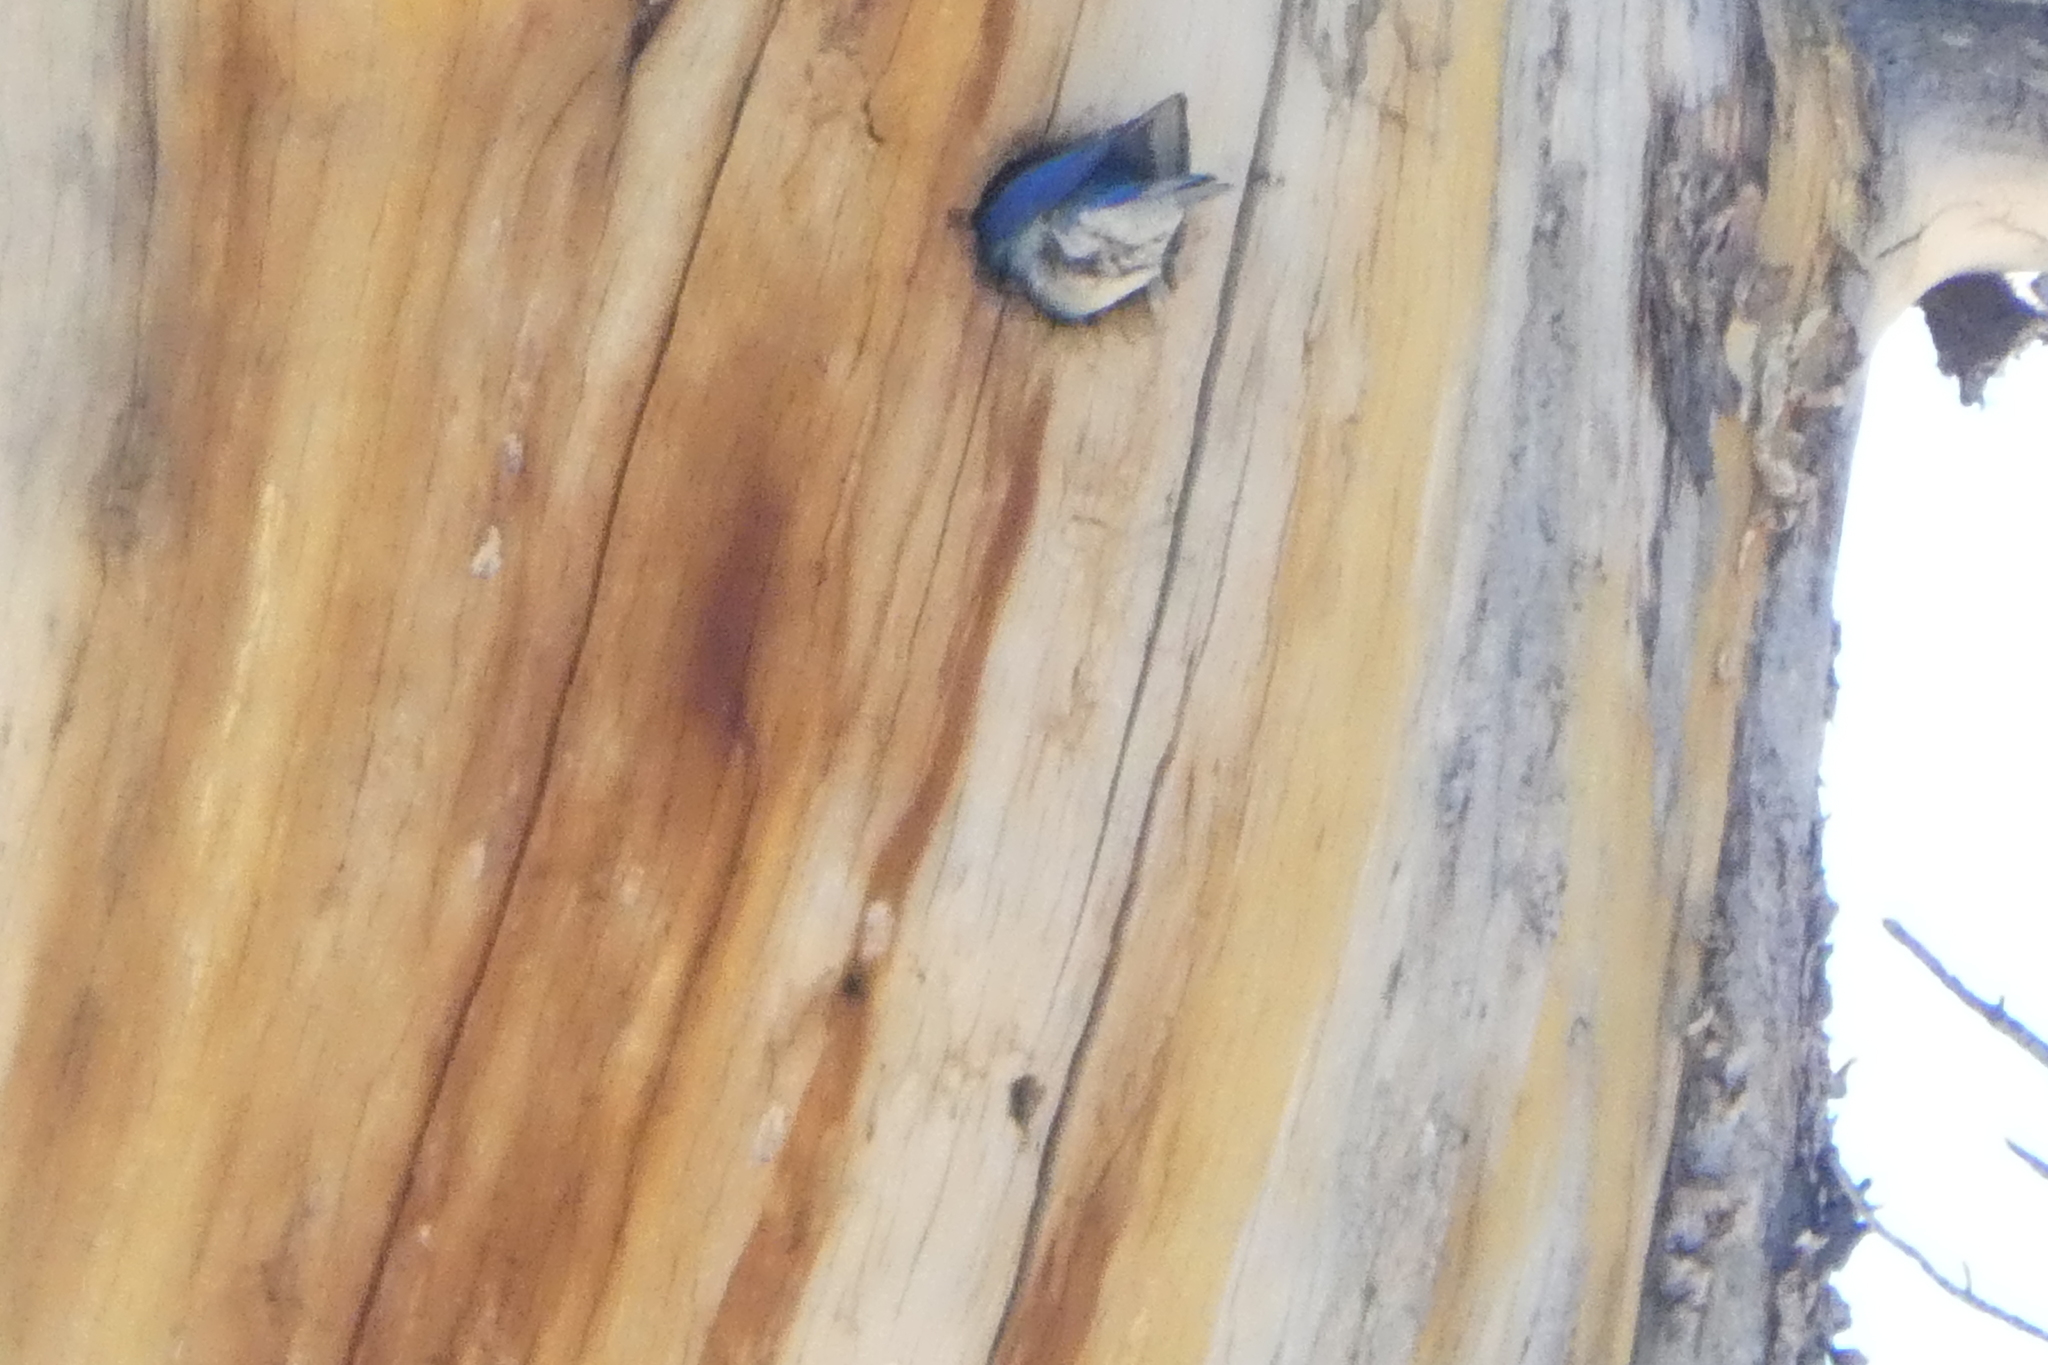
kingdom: Animalia
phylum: Chordata
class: Aves
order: Passeriformes
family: Turdidae
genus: Sialia
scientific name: Sialia currucoides
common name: Mountain bluebird
